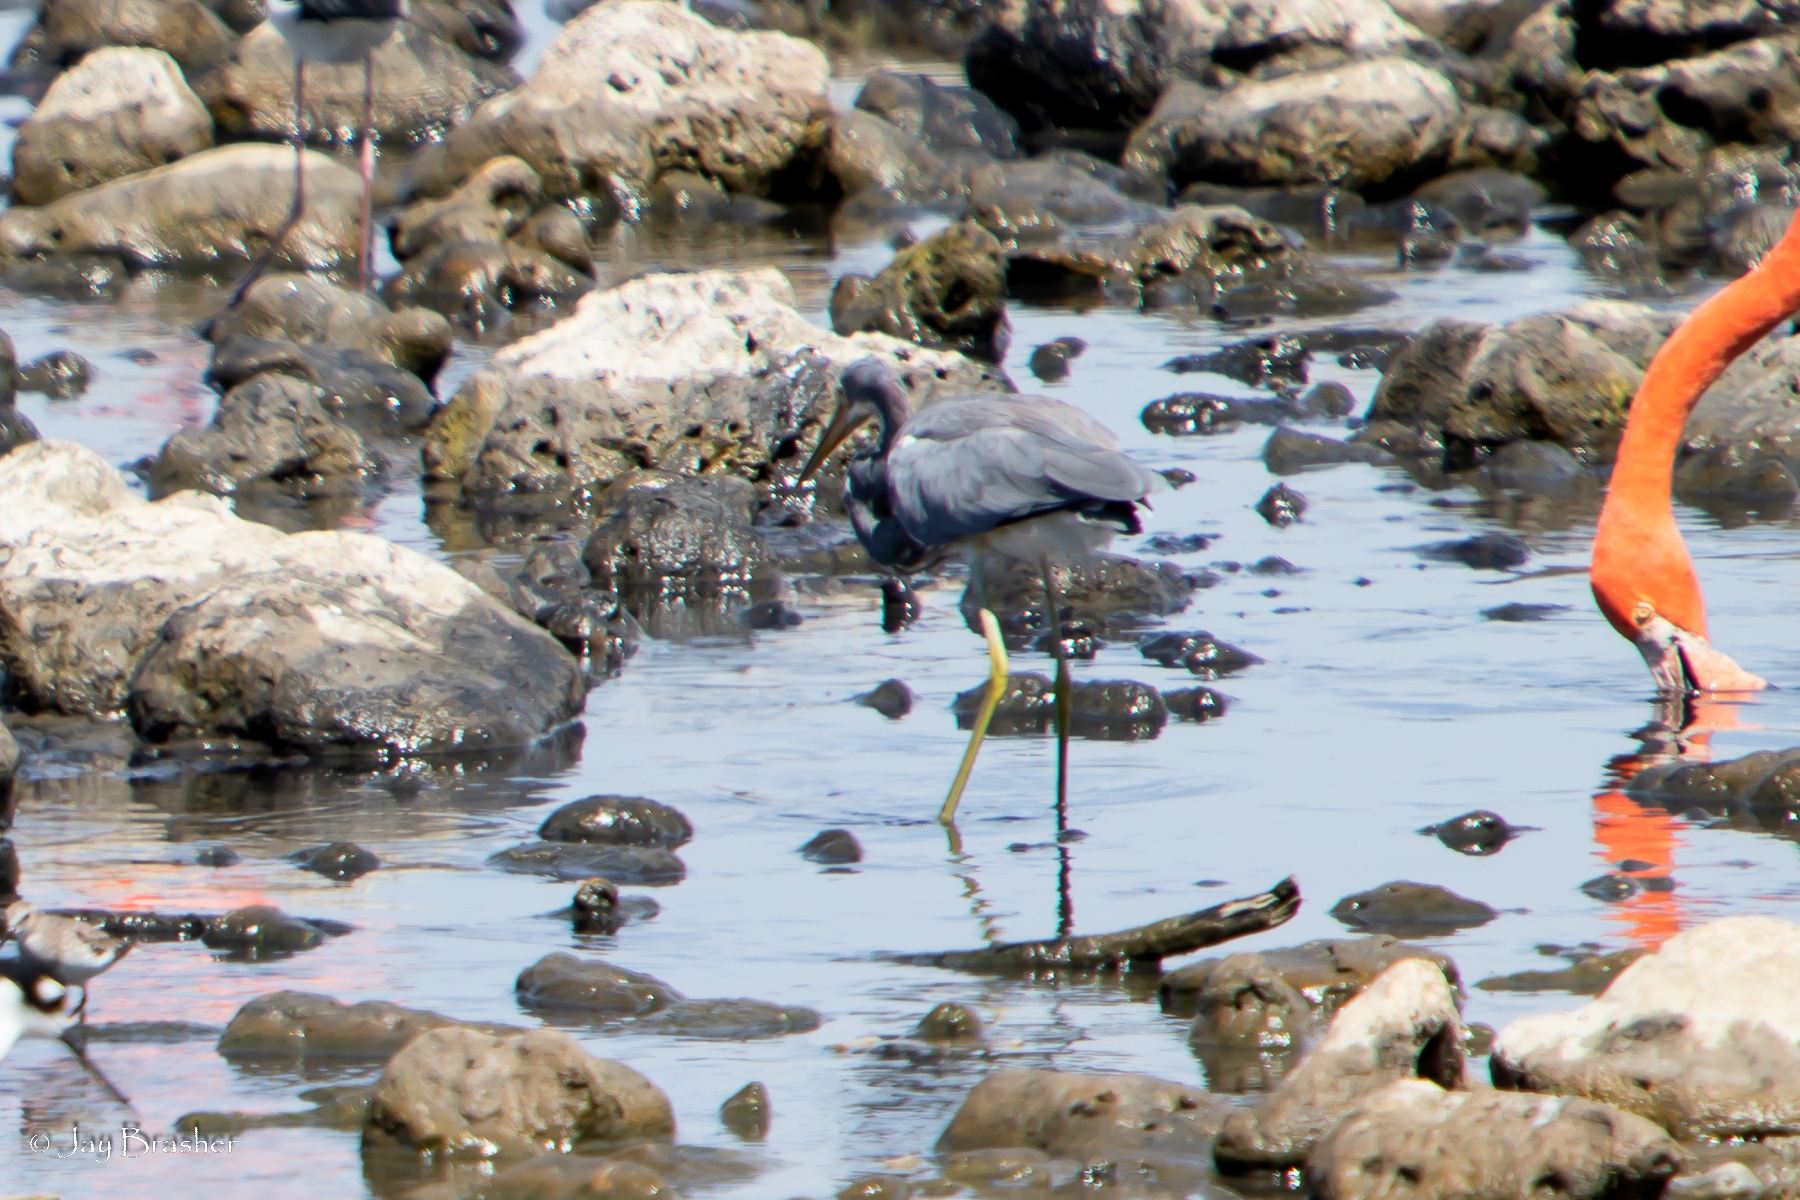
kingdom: Animalia
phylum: Chordata
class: Aves
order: Pelecaniformes
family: Ardeidae
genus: Egretta
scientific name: Egretta tricolor
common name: Tricolored heron
